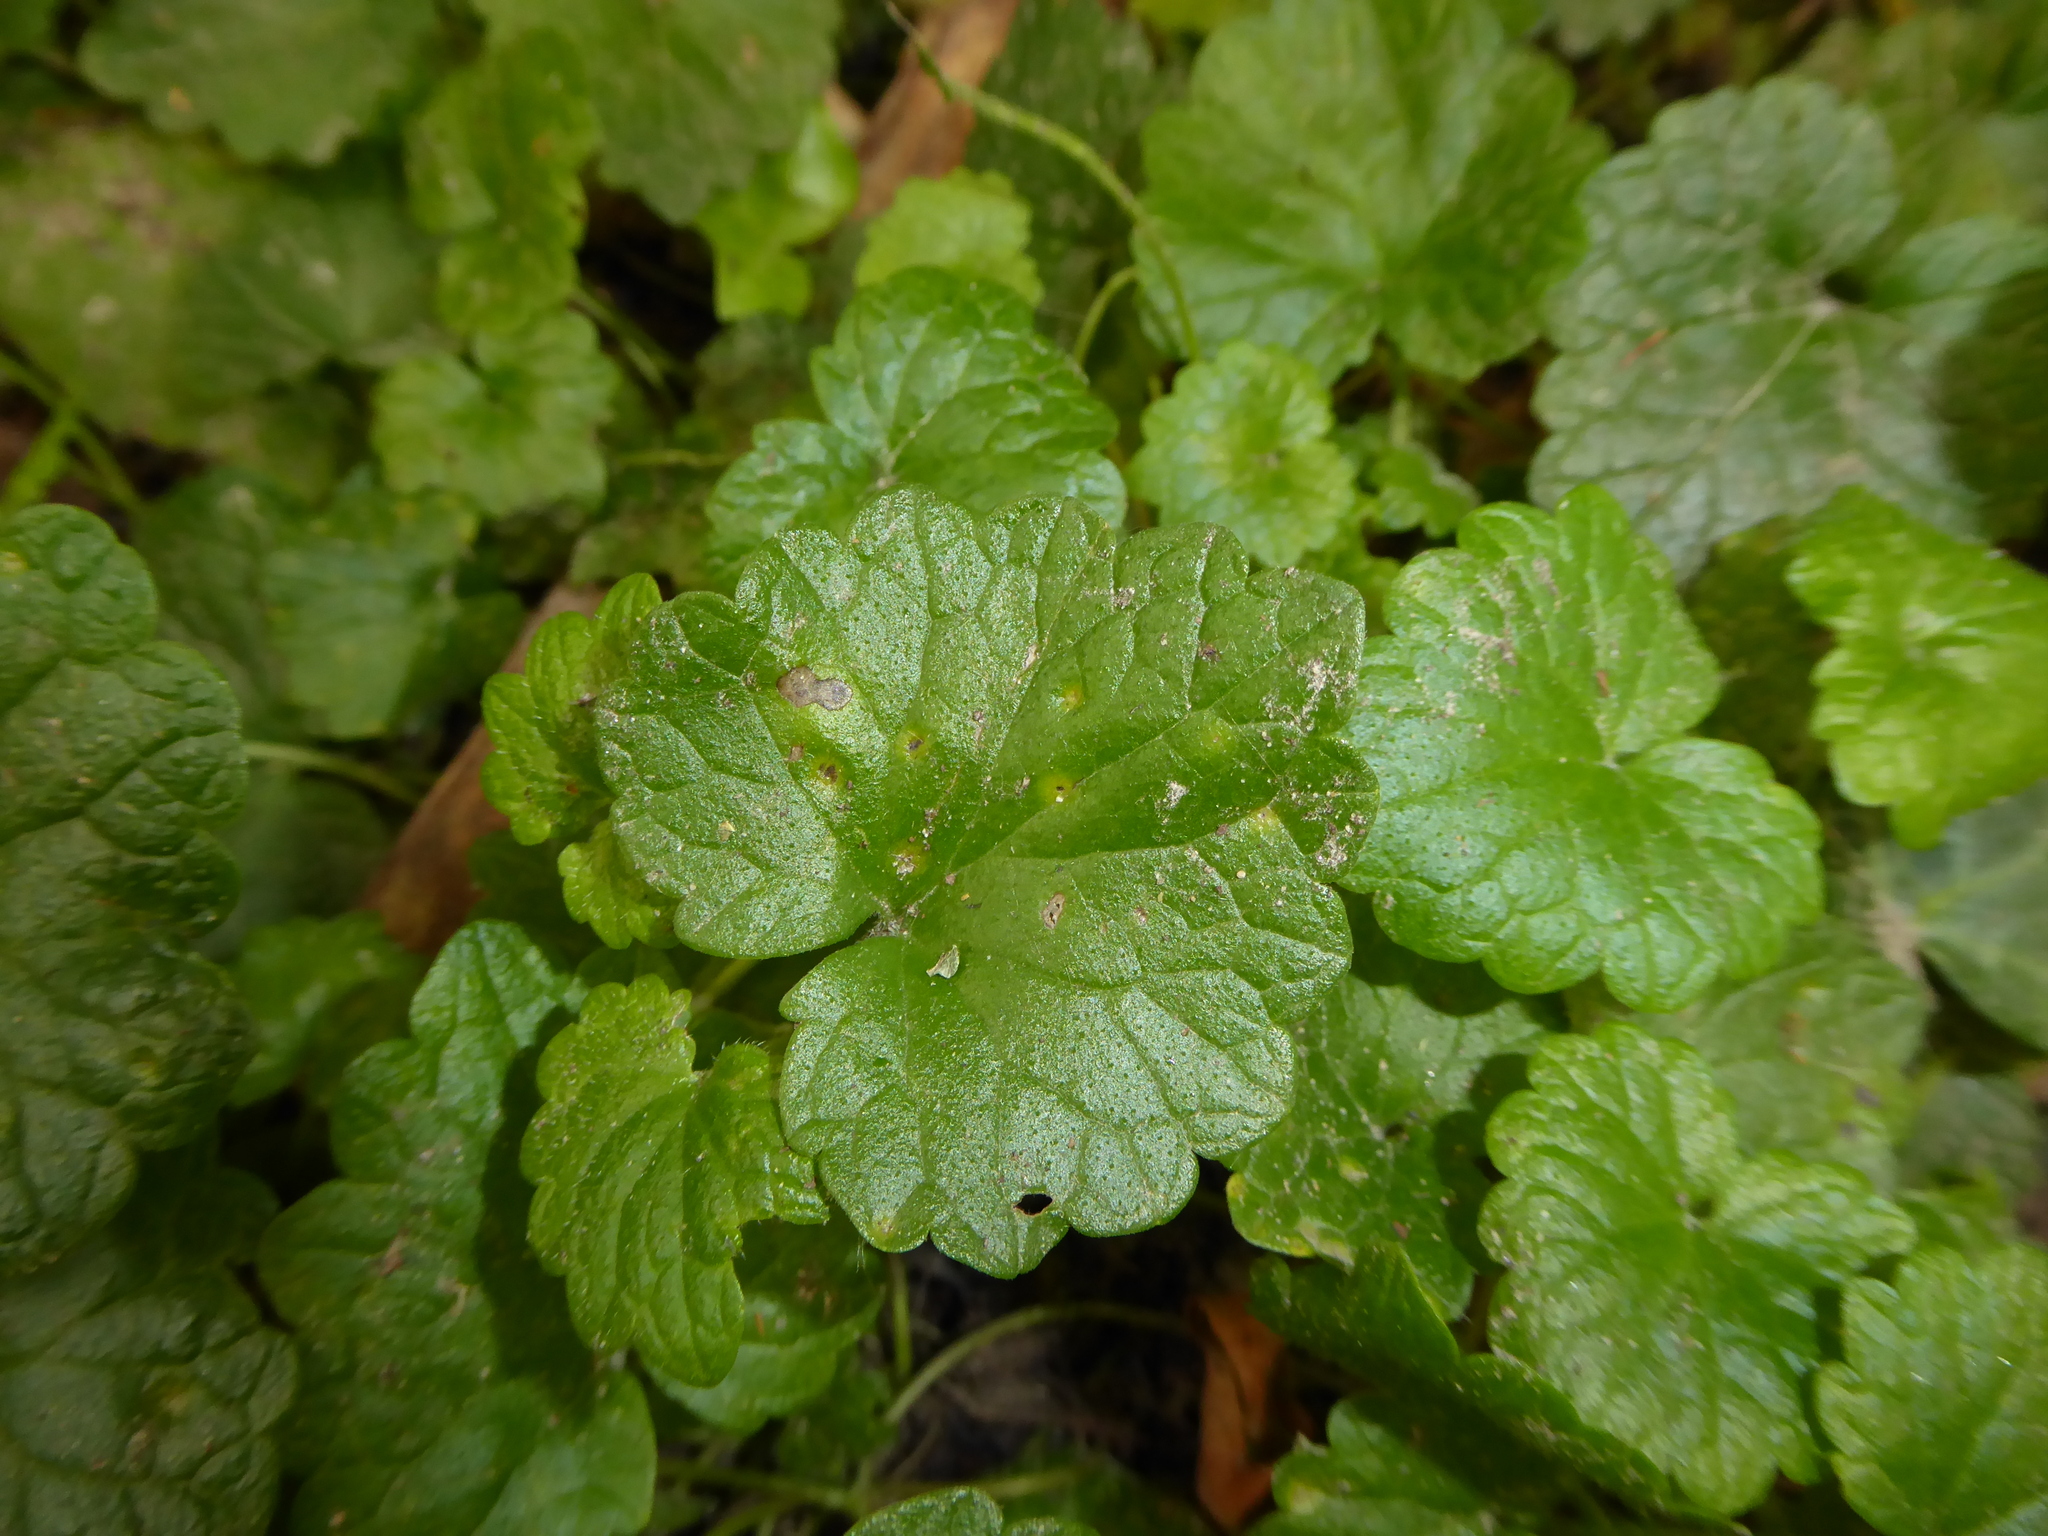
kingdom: Plantae
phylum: Tracheophyta
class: Magnoliopsida
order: Lamiales
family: Lamiaceae
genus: Glechoma
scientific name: Glechoma hederacea
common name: Ground ivy
